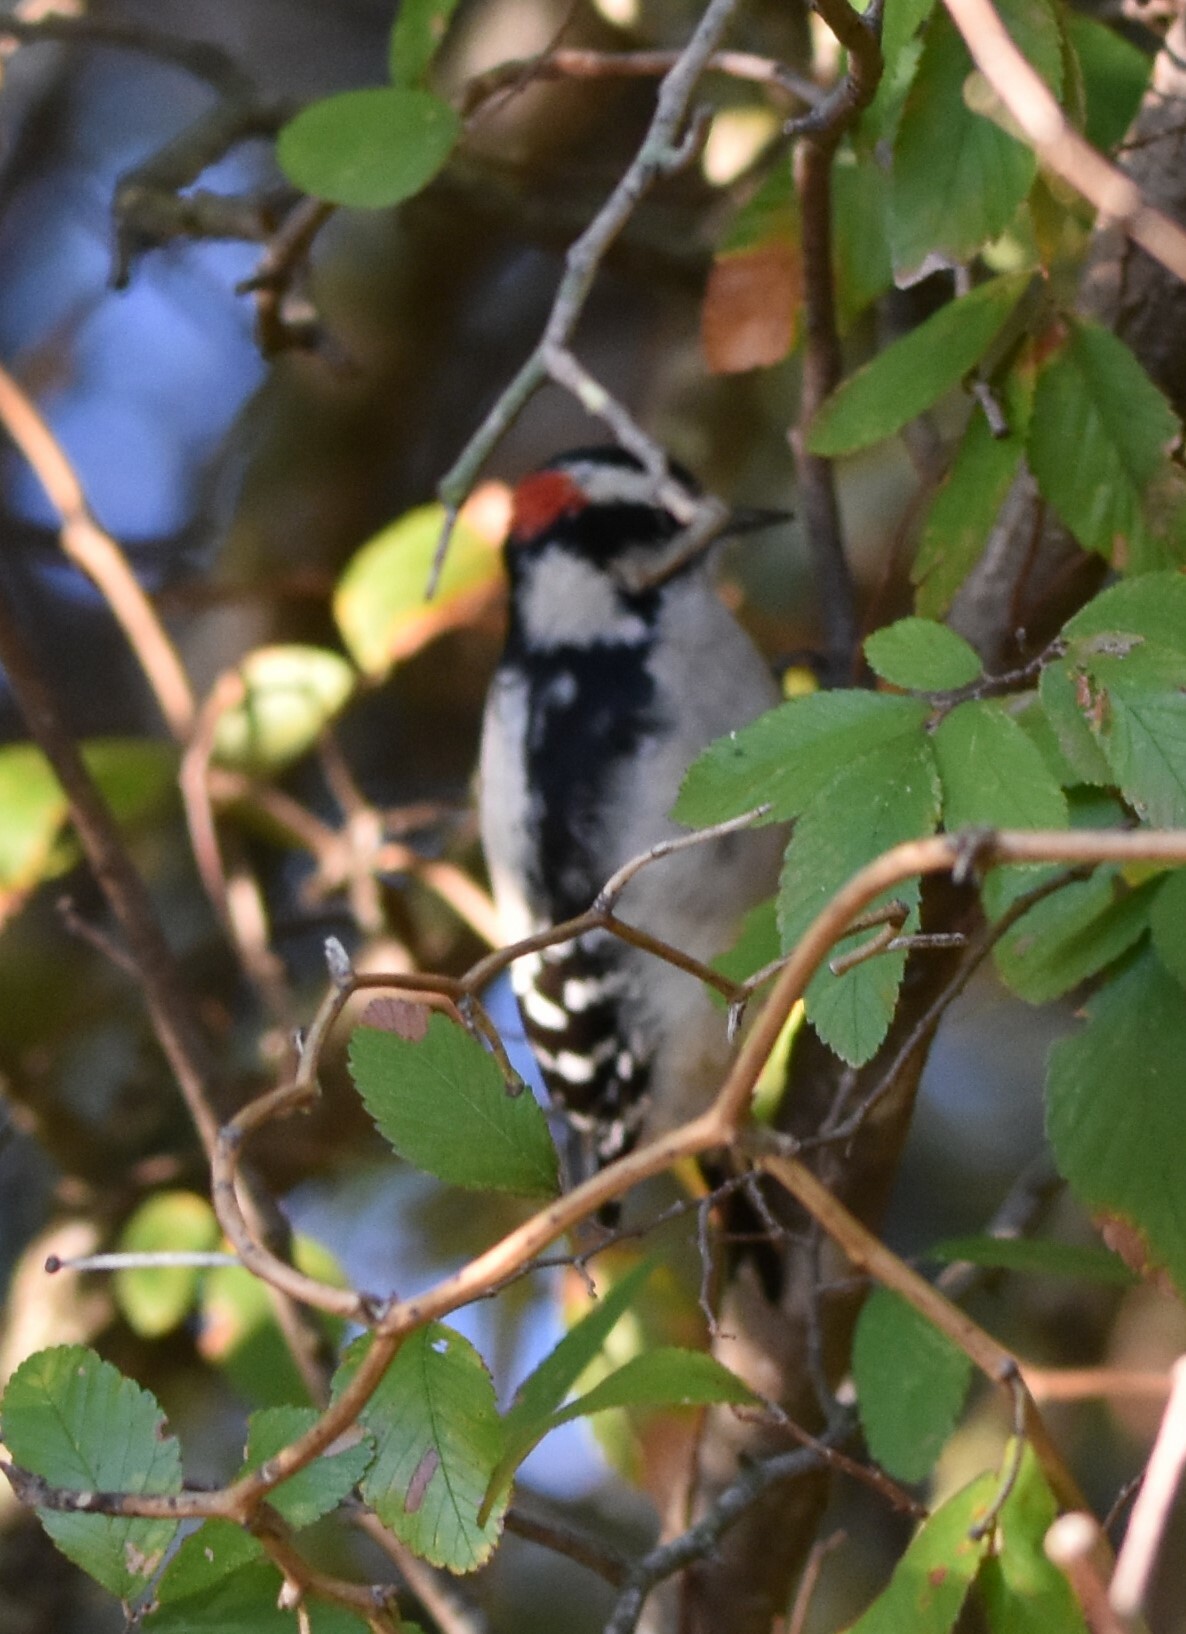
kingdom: Animalia
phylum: Chordata
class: Aves
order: Piciformes
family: Picidae
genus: Dryobates
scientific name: Dryobates pubescens
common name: Downy woodpecker
